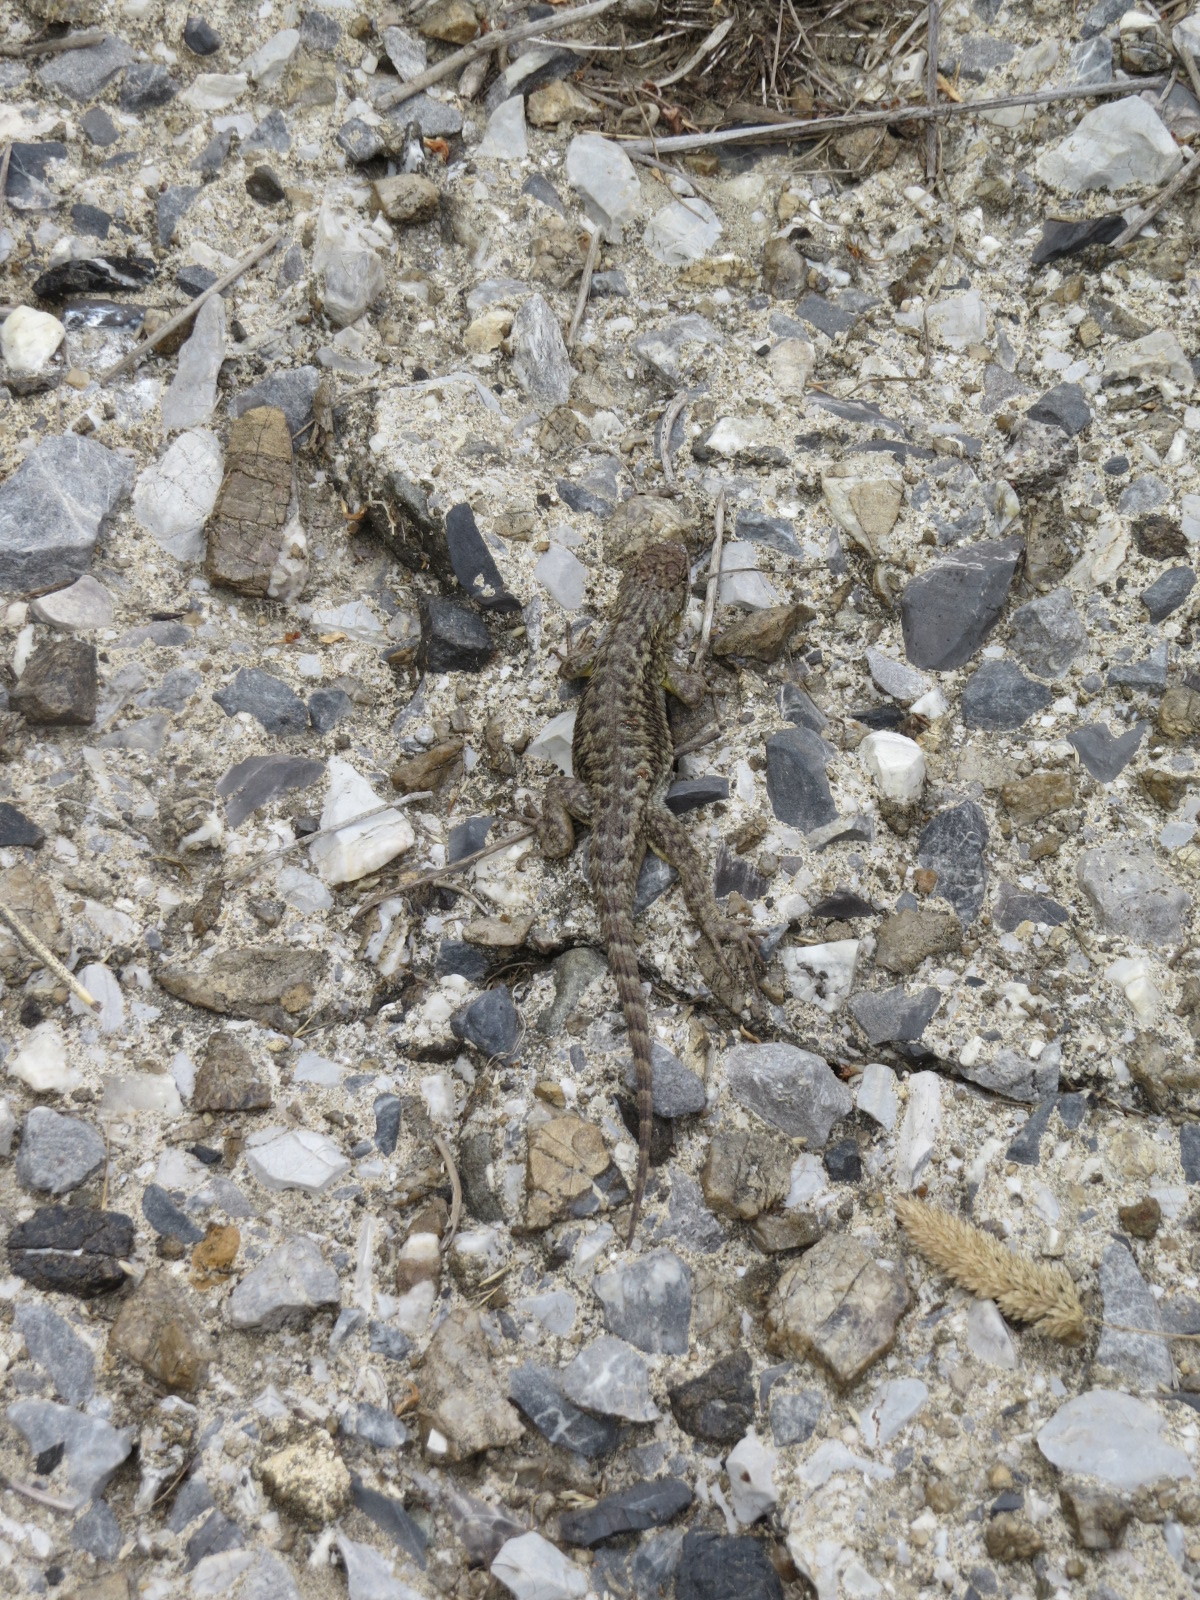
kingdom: Animalia
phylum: Chordata
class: Squamata
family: Phrynosomatidae
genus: Sceloporus
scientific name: Sceloporus occidentalis
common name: Western fence lizard
